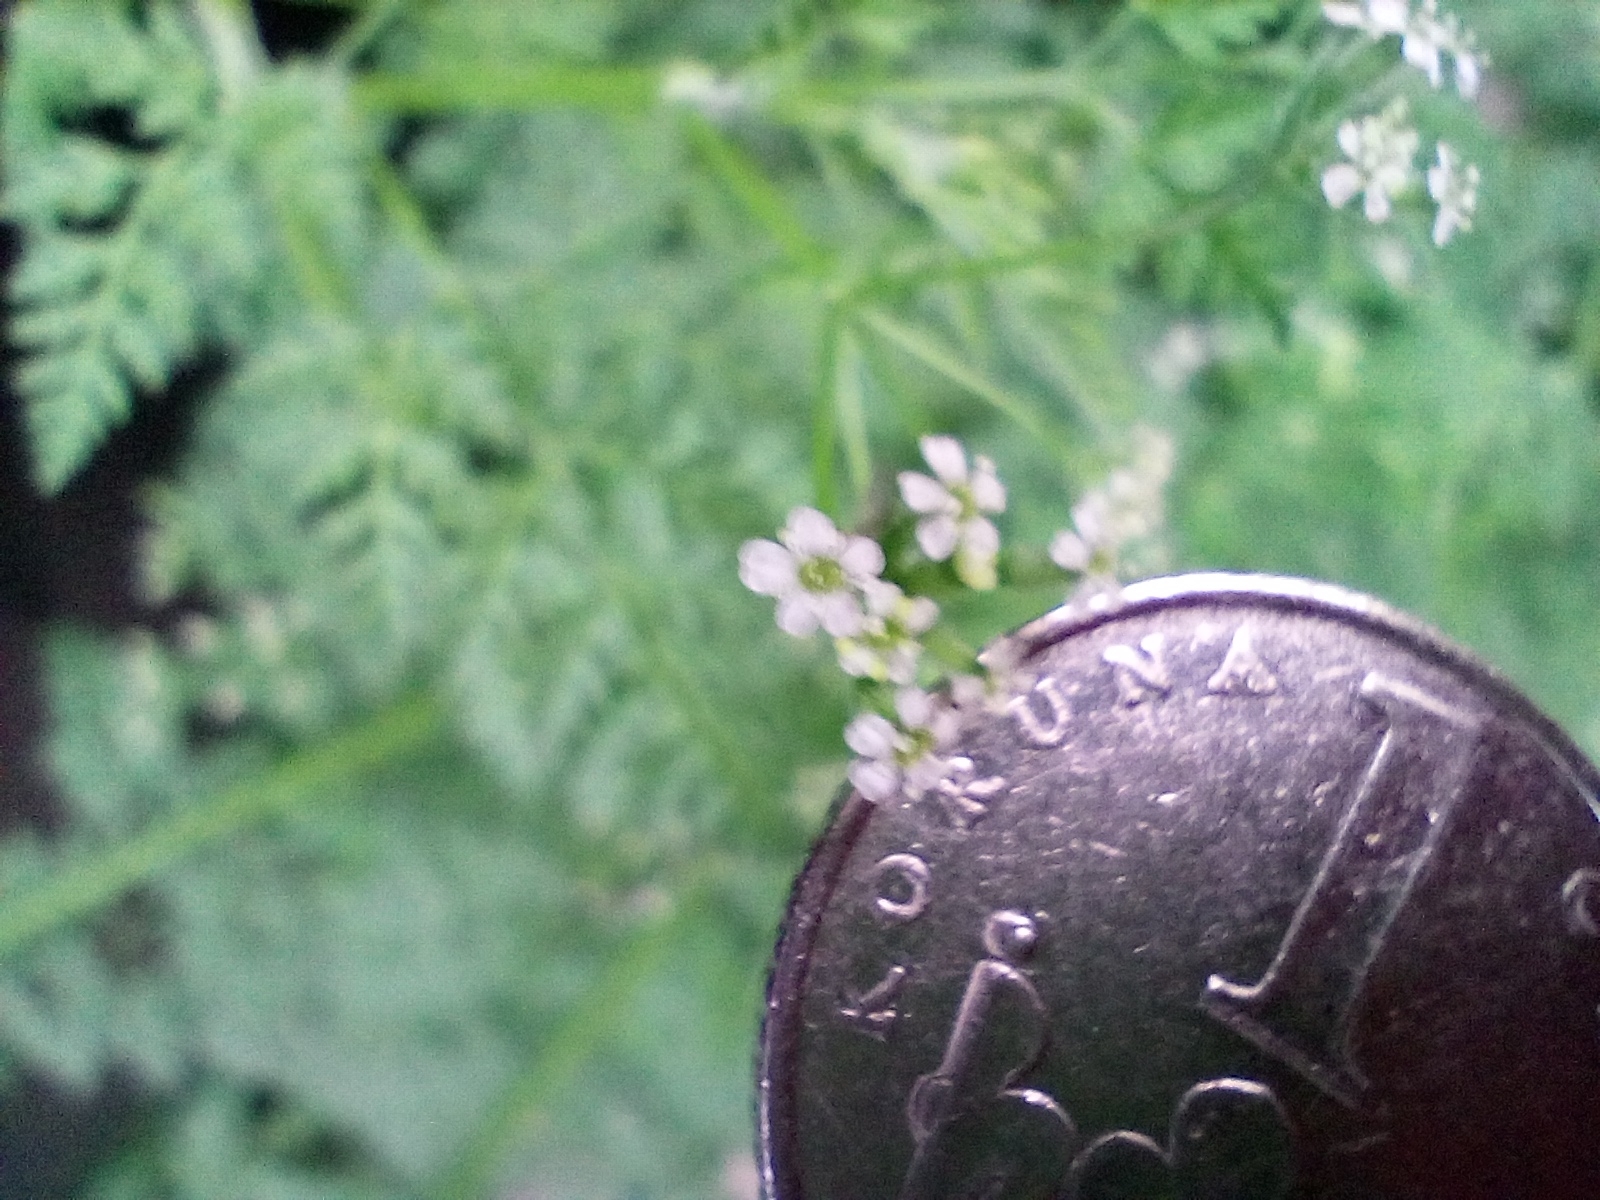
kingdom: Plantae
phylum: Tracheophyta
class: Magnoliopsida
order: Apiales
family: Apiaceae
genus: Anthriscus
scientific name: Anthriscus caucalis
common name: Bur chervil
